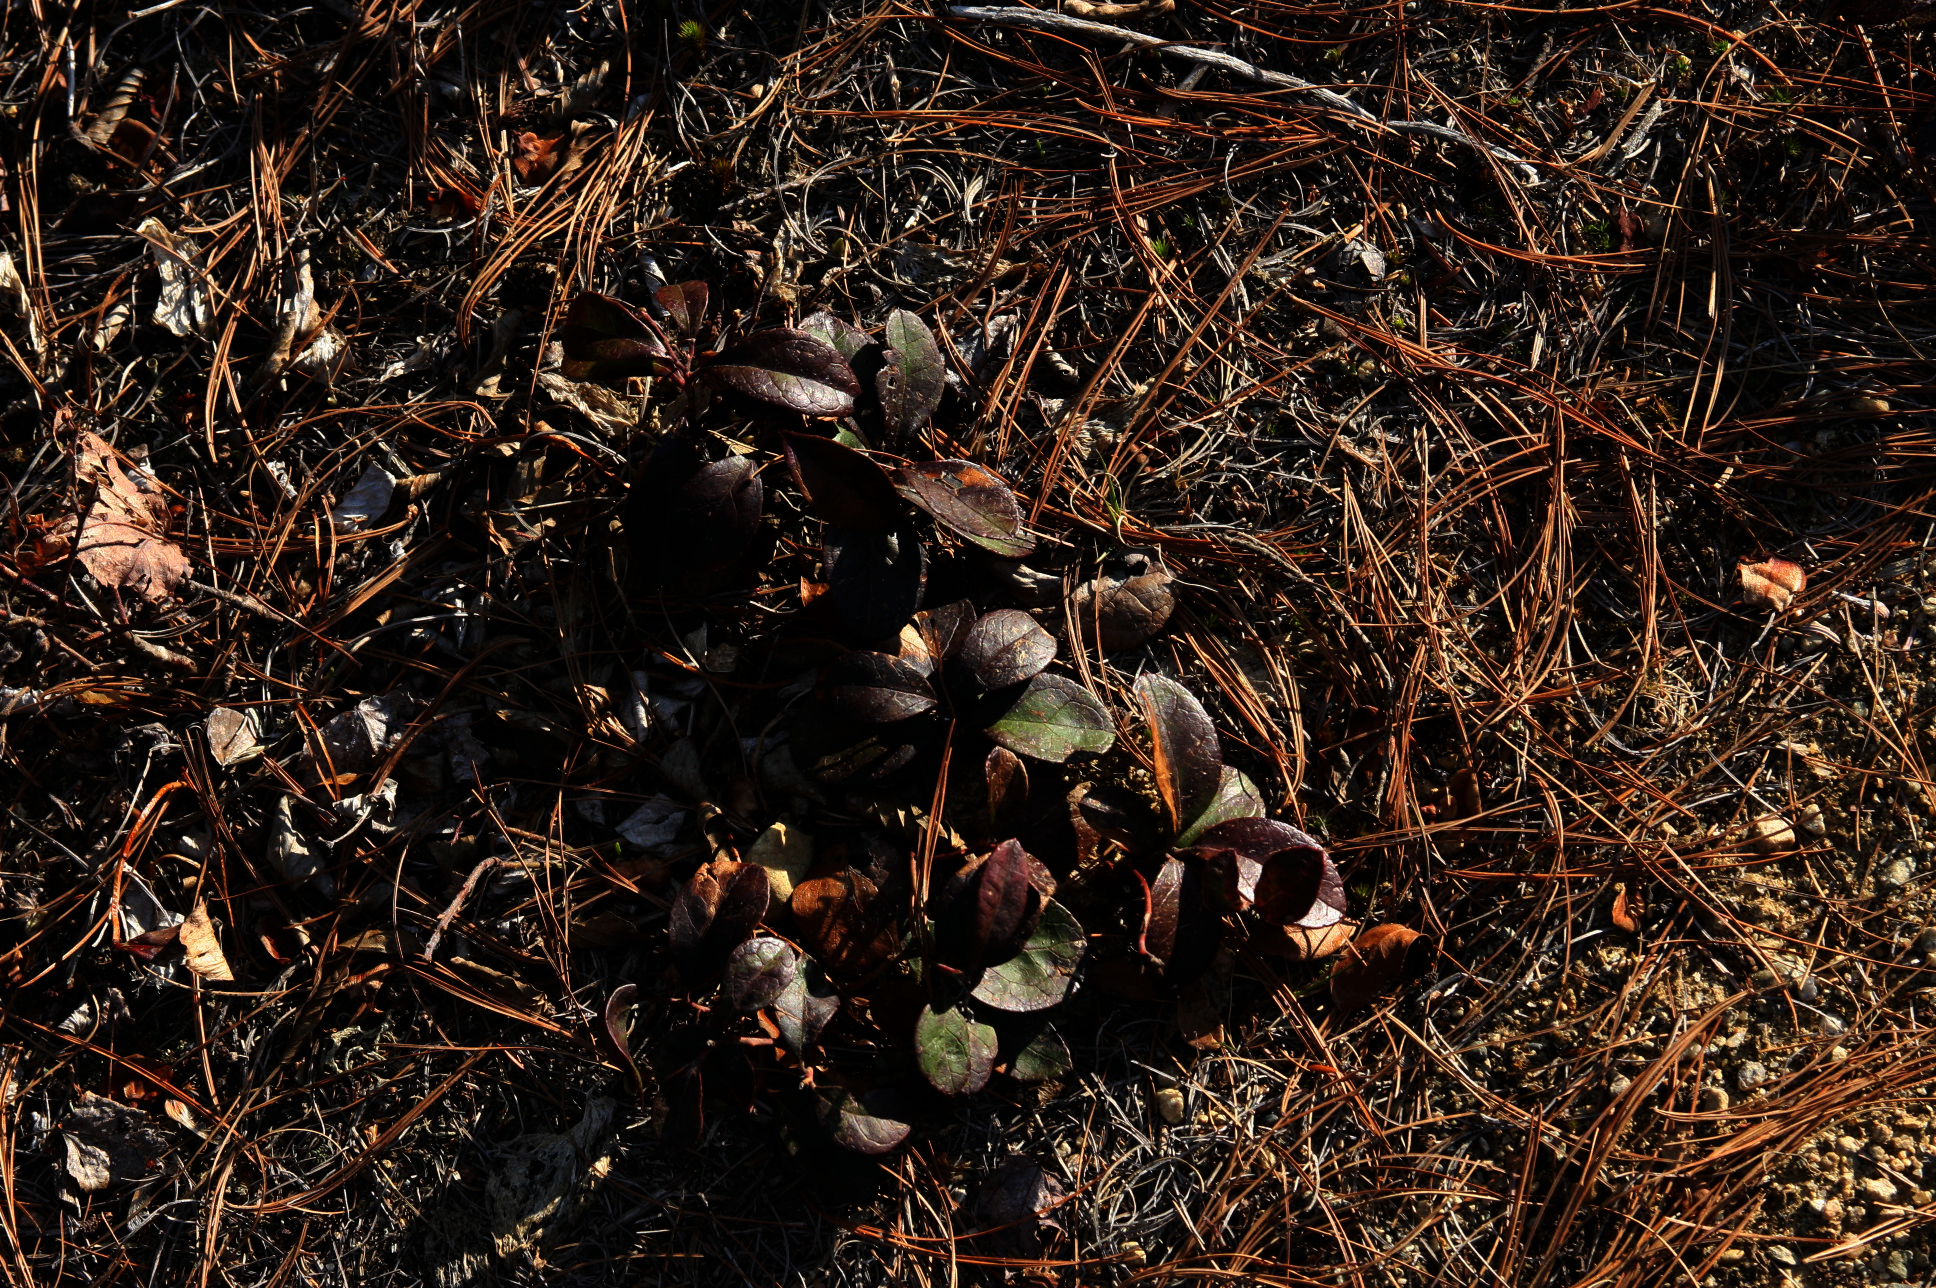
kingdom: Plantae
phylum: Tracheophyta
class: Magnoliopsida
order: Ericales
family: Ericaceae
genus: Gaultheria
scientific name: Gaultheria procumbens
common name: Checkerberry
